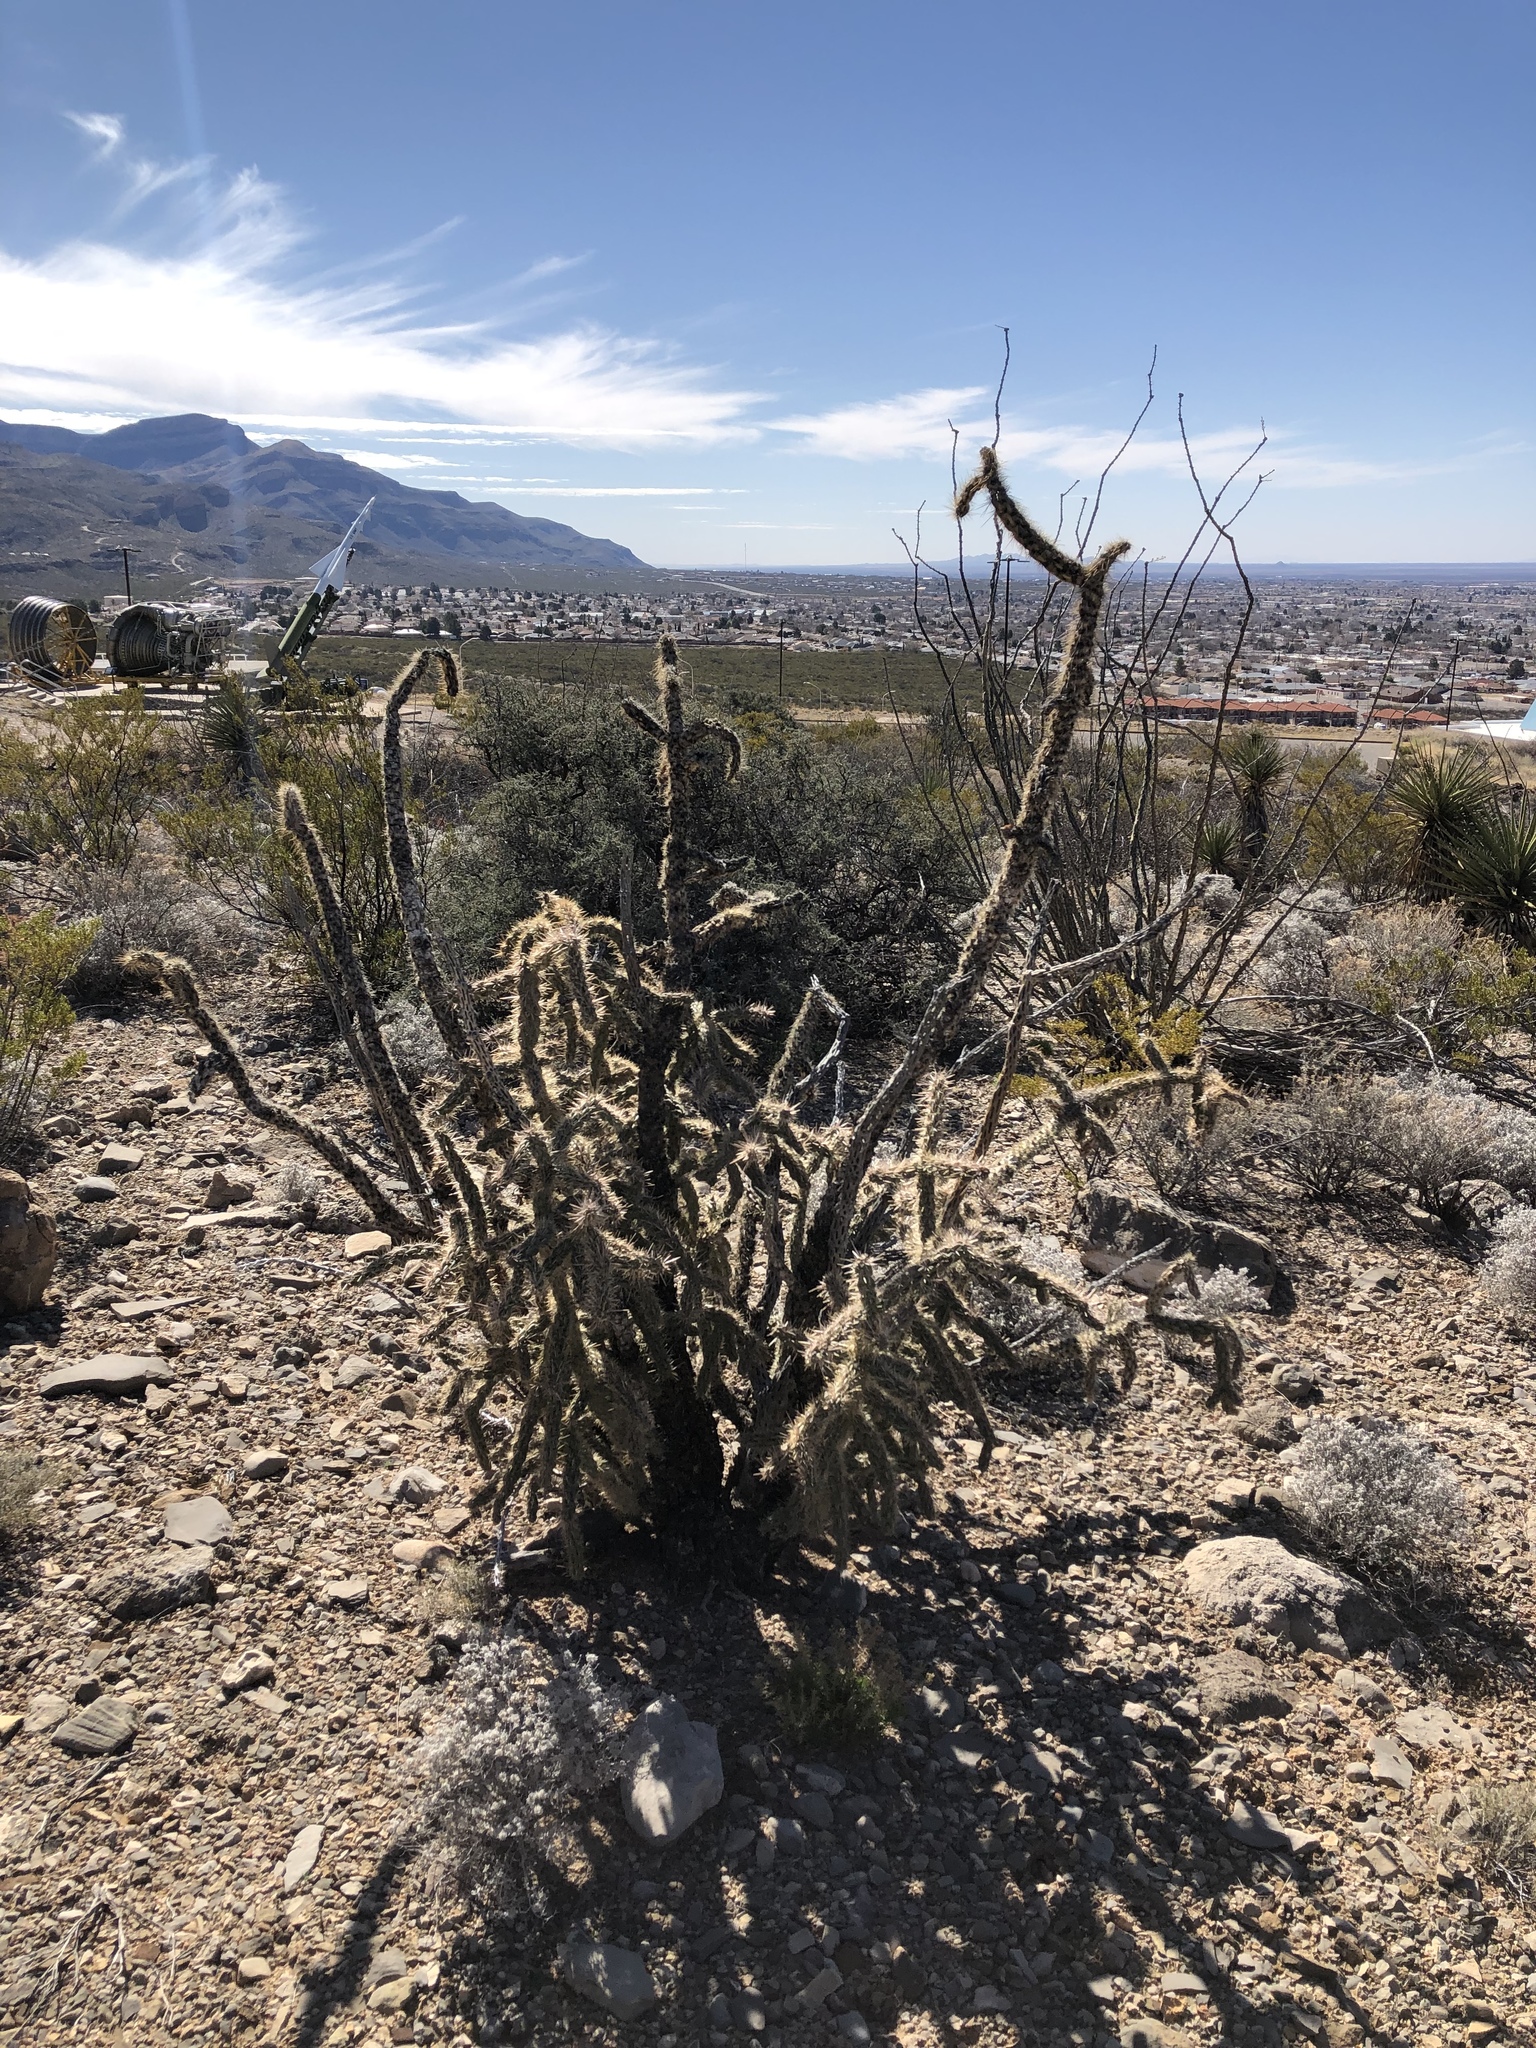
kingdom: Plantae
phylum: Tracheophyta
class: Magnoliopsida
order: Caryophyllales
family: Cactaceae
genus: Cylindropuntia
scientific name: Cylindropuntia imbricata
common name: Candelabrum cactus
